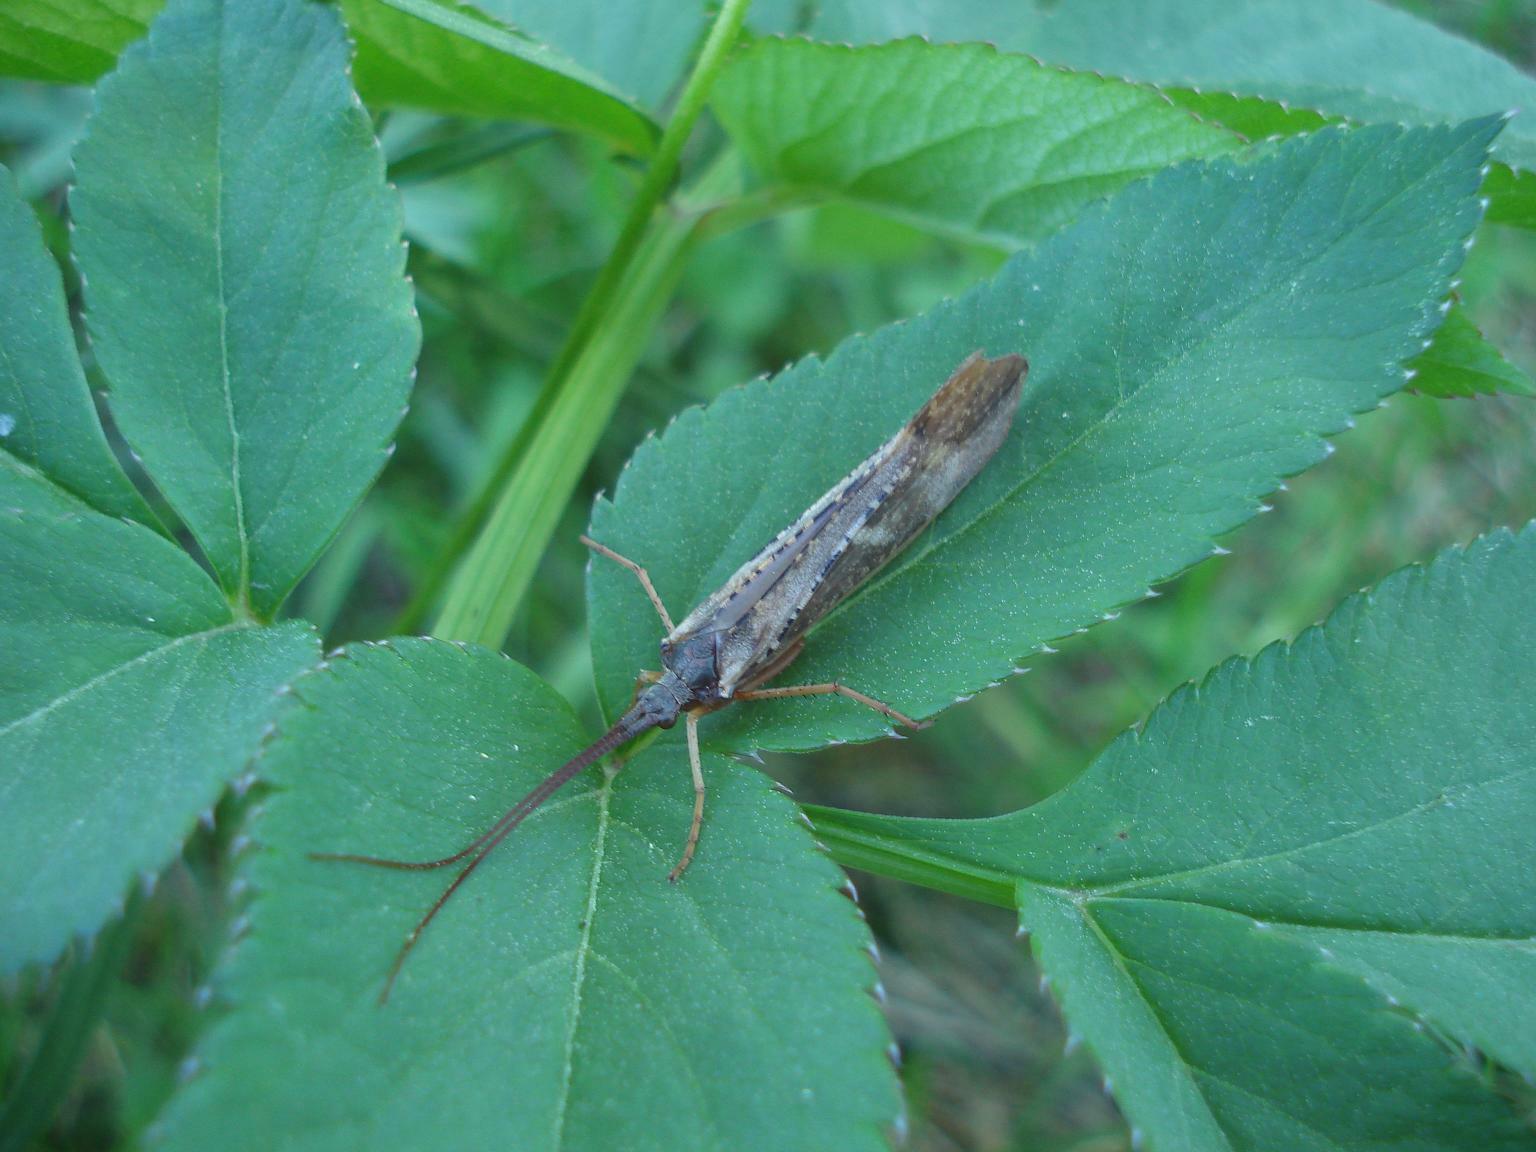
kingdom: Animalia
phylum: Arthropoda
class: Insecta
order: Trichoptera
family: Limnephilidae
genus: Nemotaulius
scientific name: Nemotaulius punctatolineatus
